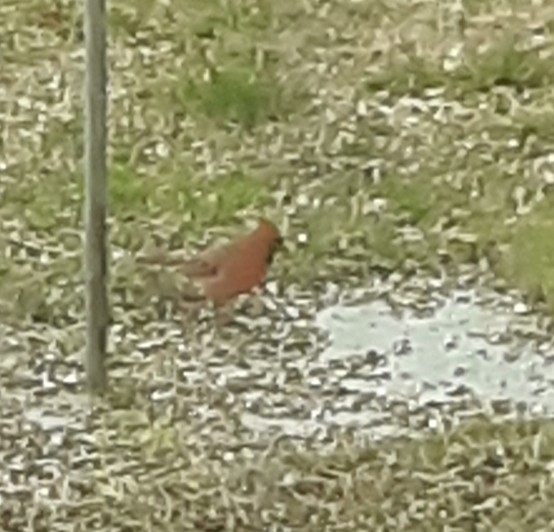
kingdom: Animalia
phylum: Chordata
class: Aves
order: Passeriformes
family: Cardinalidae
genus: Cardinalis
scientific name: Cardinalis cardinalis
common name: Northern cardinal
